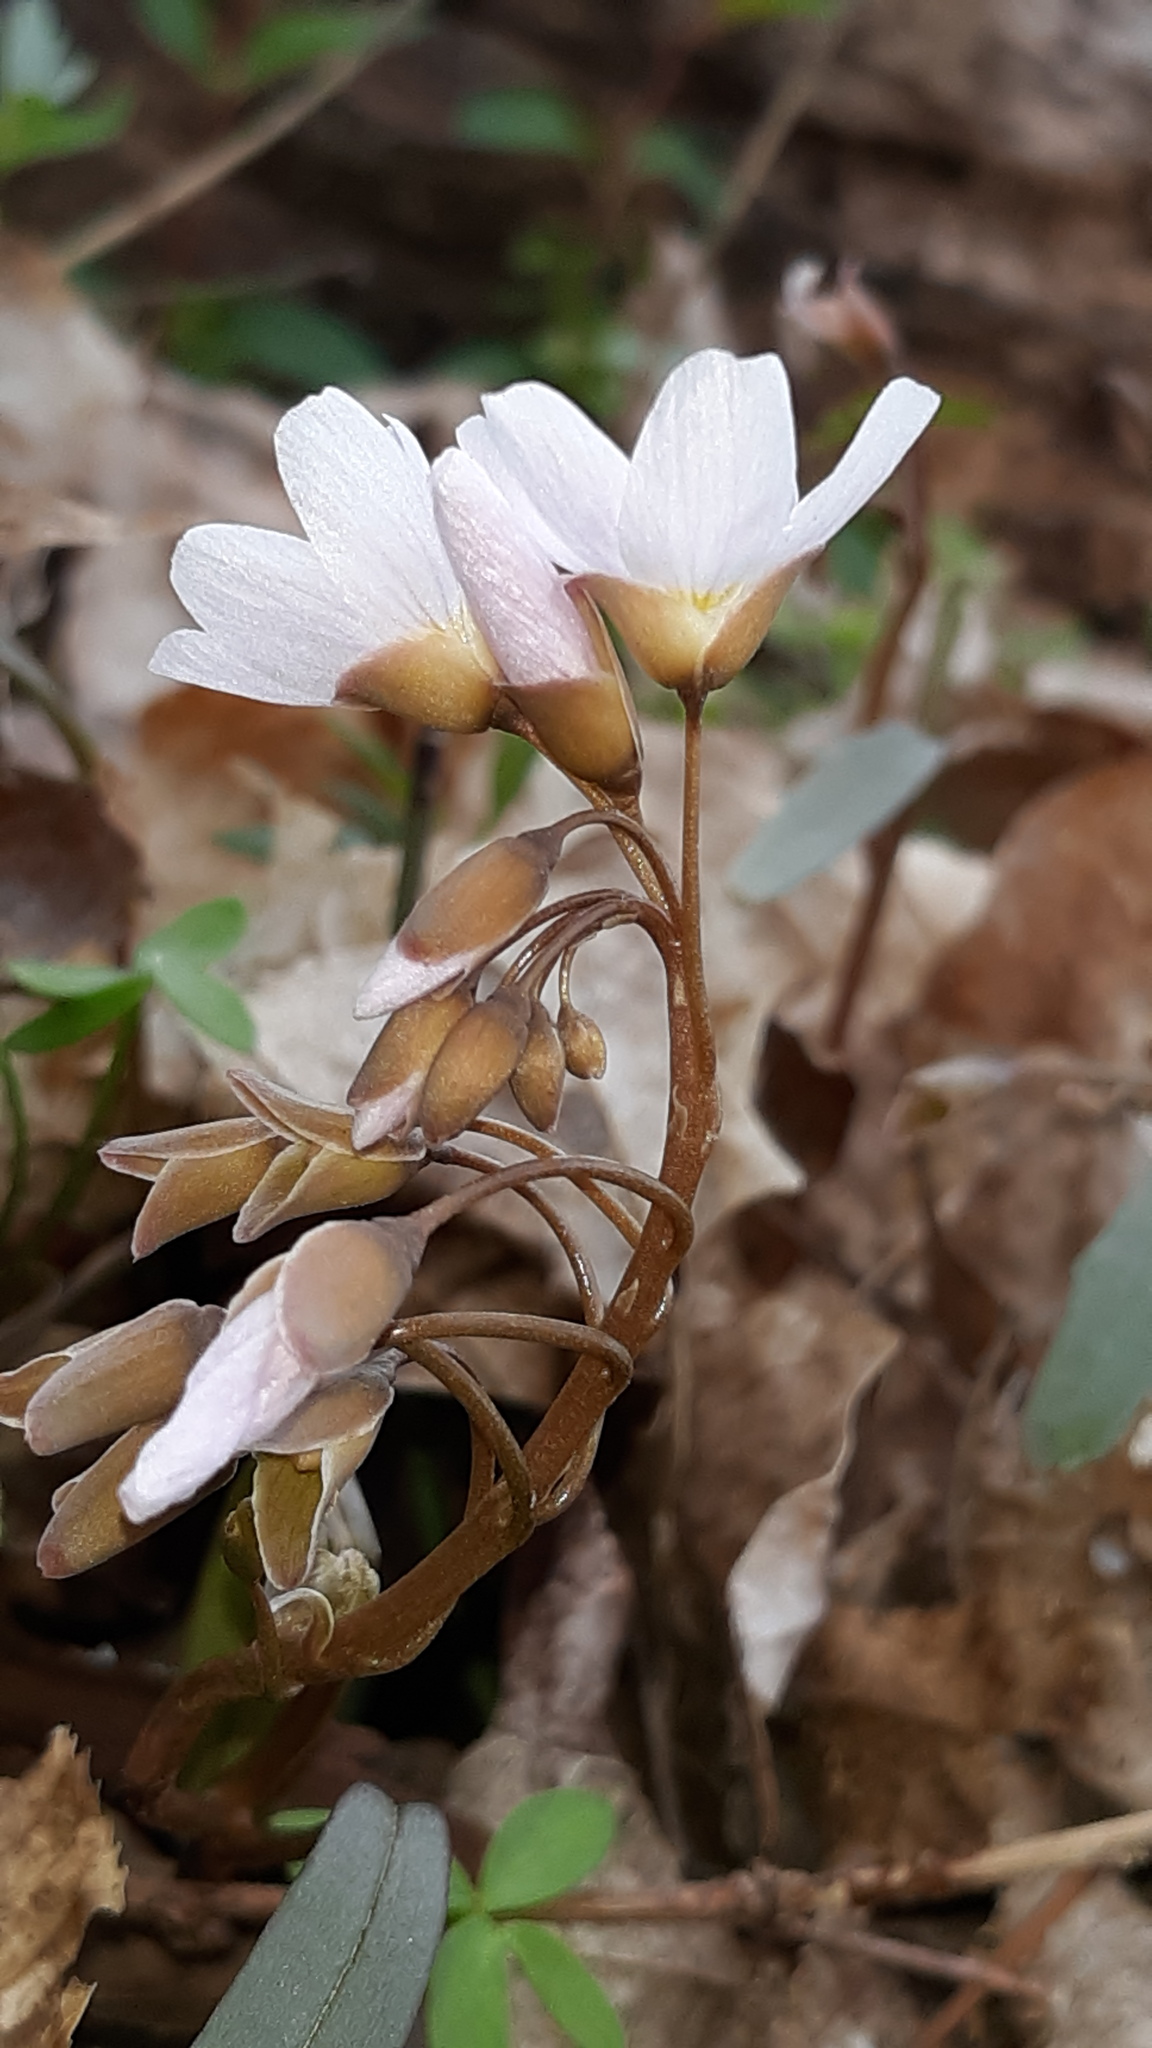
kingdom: Plantae
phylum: Tracheophyta
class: Magnoliopsida
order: Caryophyllales
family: Montiaceae
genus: Claytonia
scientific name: Claytonia virginica
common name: Virginia springbeauty
